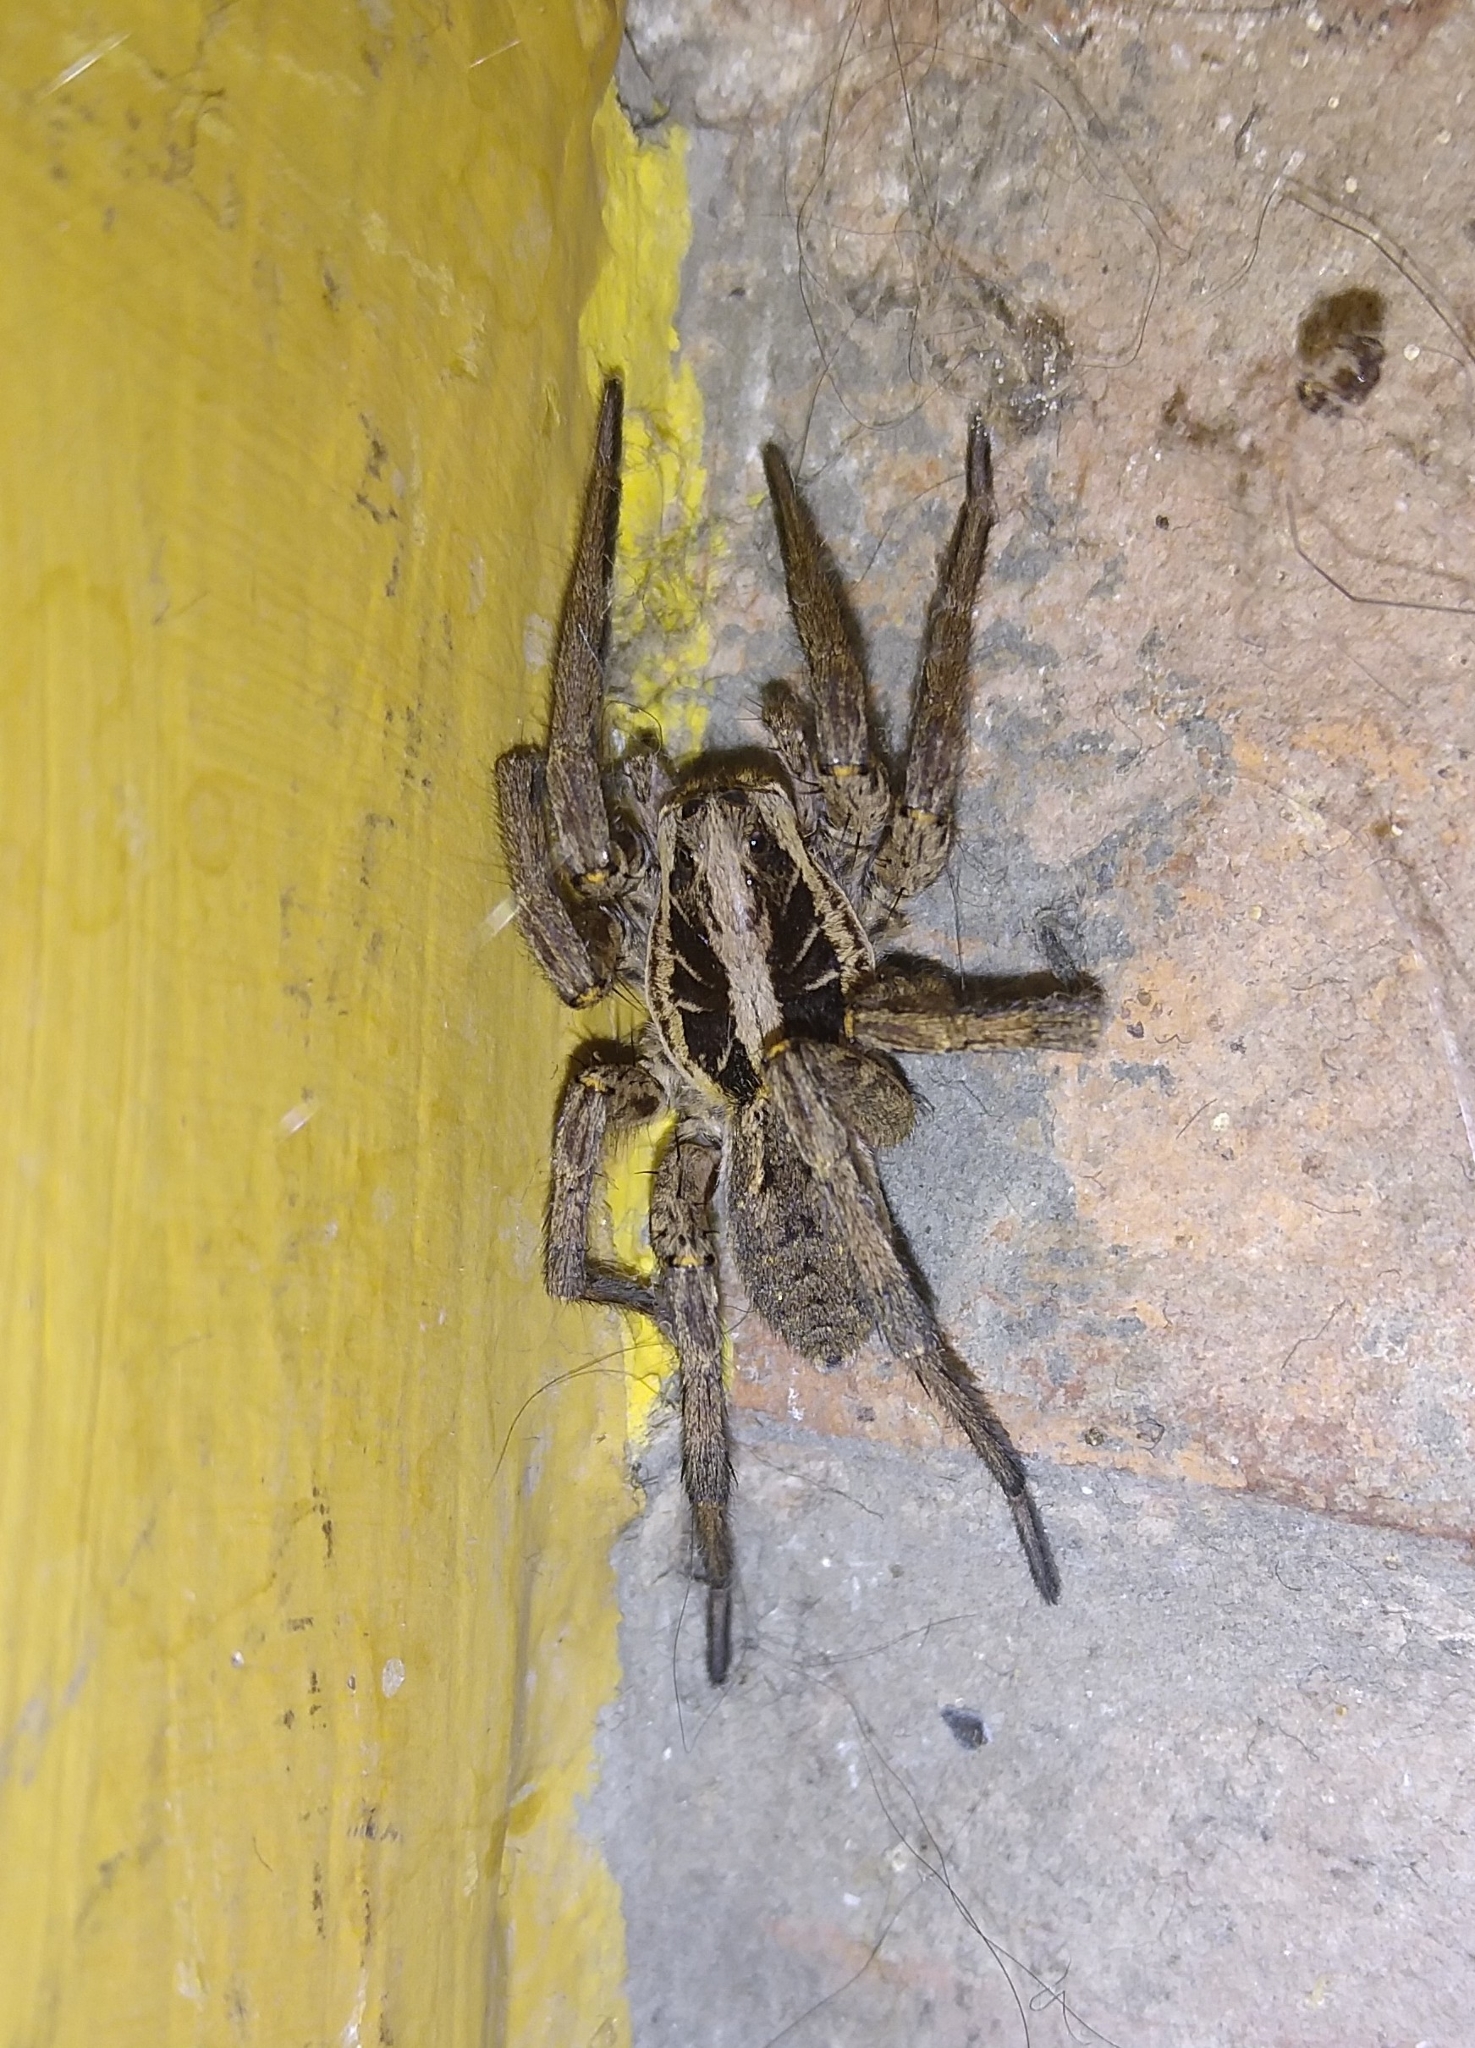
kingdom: Animalia
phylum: Arthropoda
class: Arachnida
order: Araneae
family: Lycosidae
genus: Hogna
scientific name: Hogna radiata
